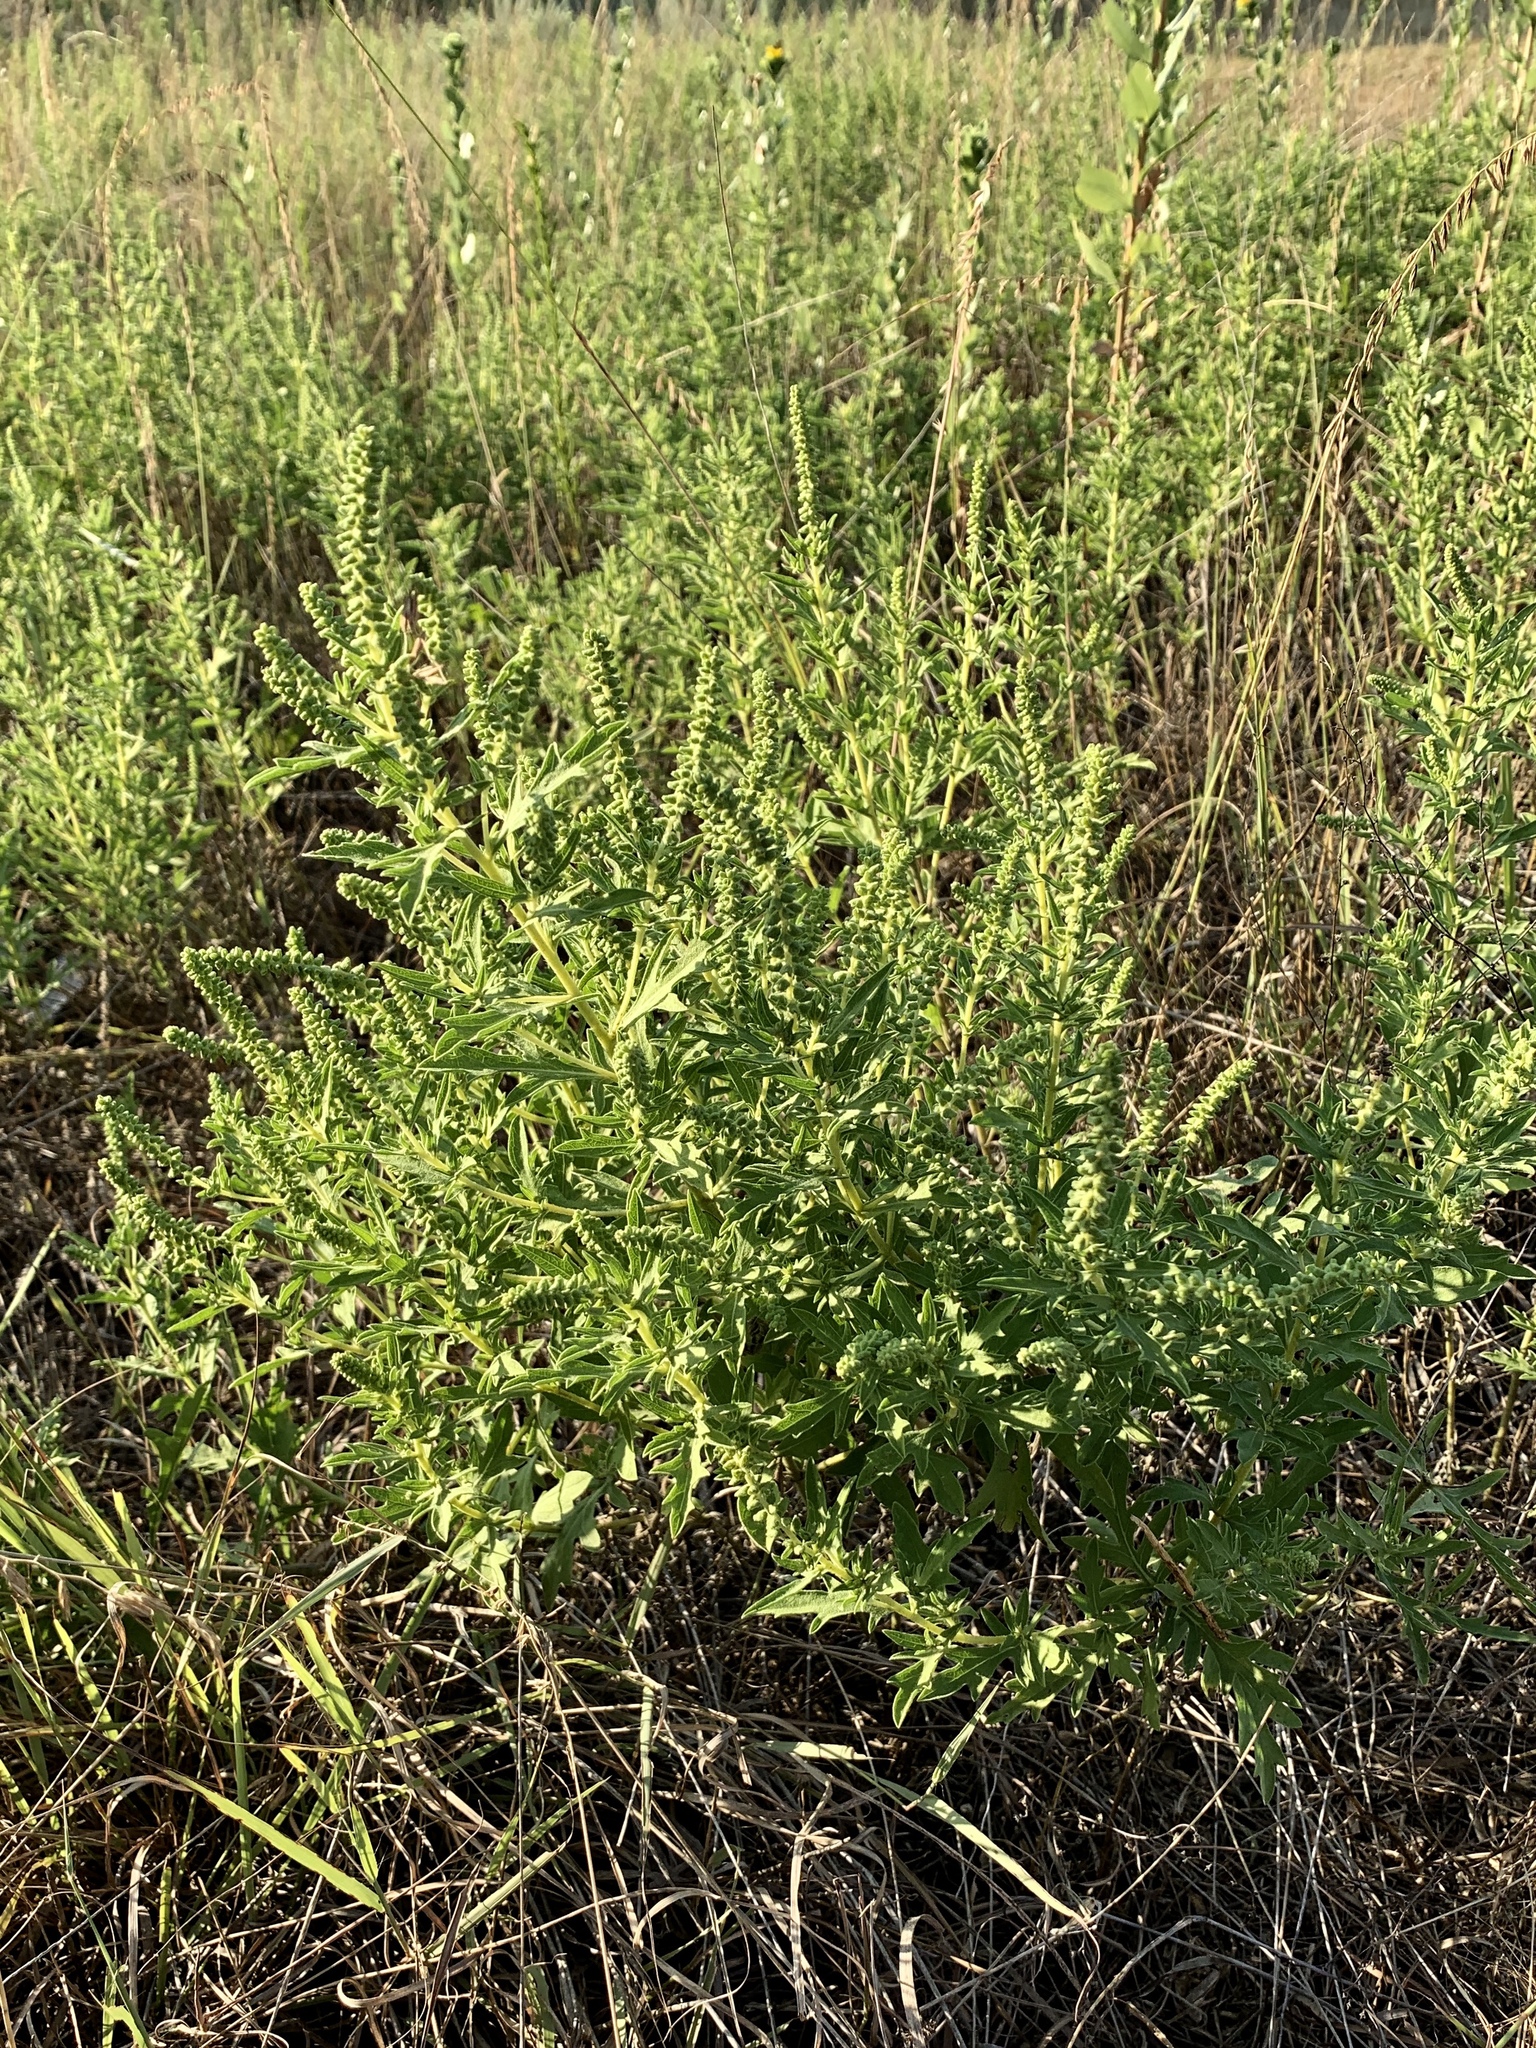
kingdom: Plantae
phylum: Tracheophyta
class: Magnoliopsida
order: Asterales
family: Asteraceae
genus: Ambrosia
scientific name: Ambrosia psilostachya
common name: Perennial ragweed
